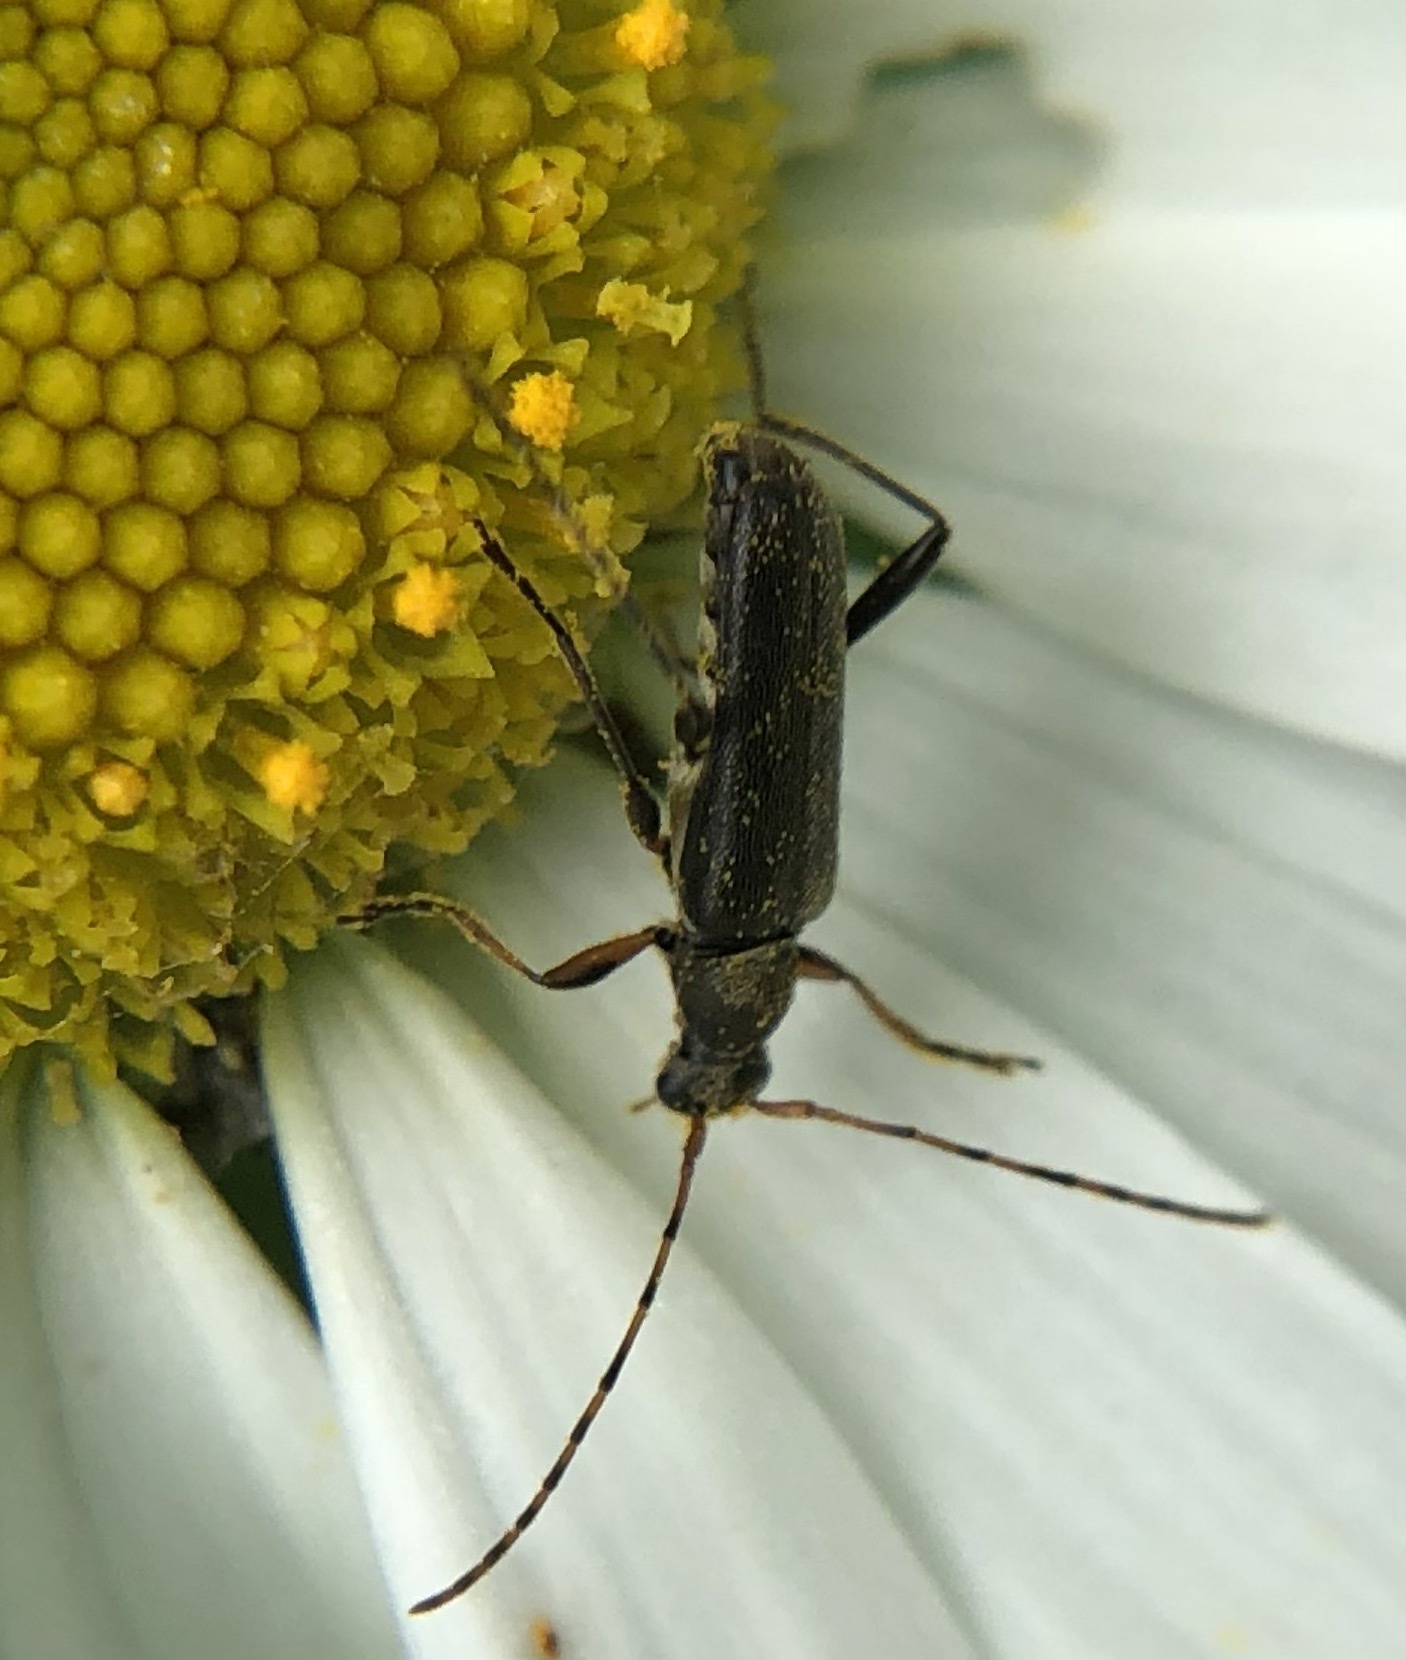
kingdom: Animalia
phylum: Arthropoda
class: Insecta
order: Coleoptera
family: Cerambycidae
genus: Grammoptera
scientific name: Grammoptera ruficornis
